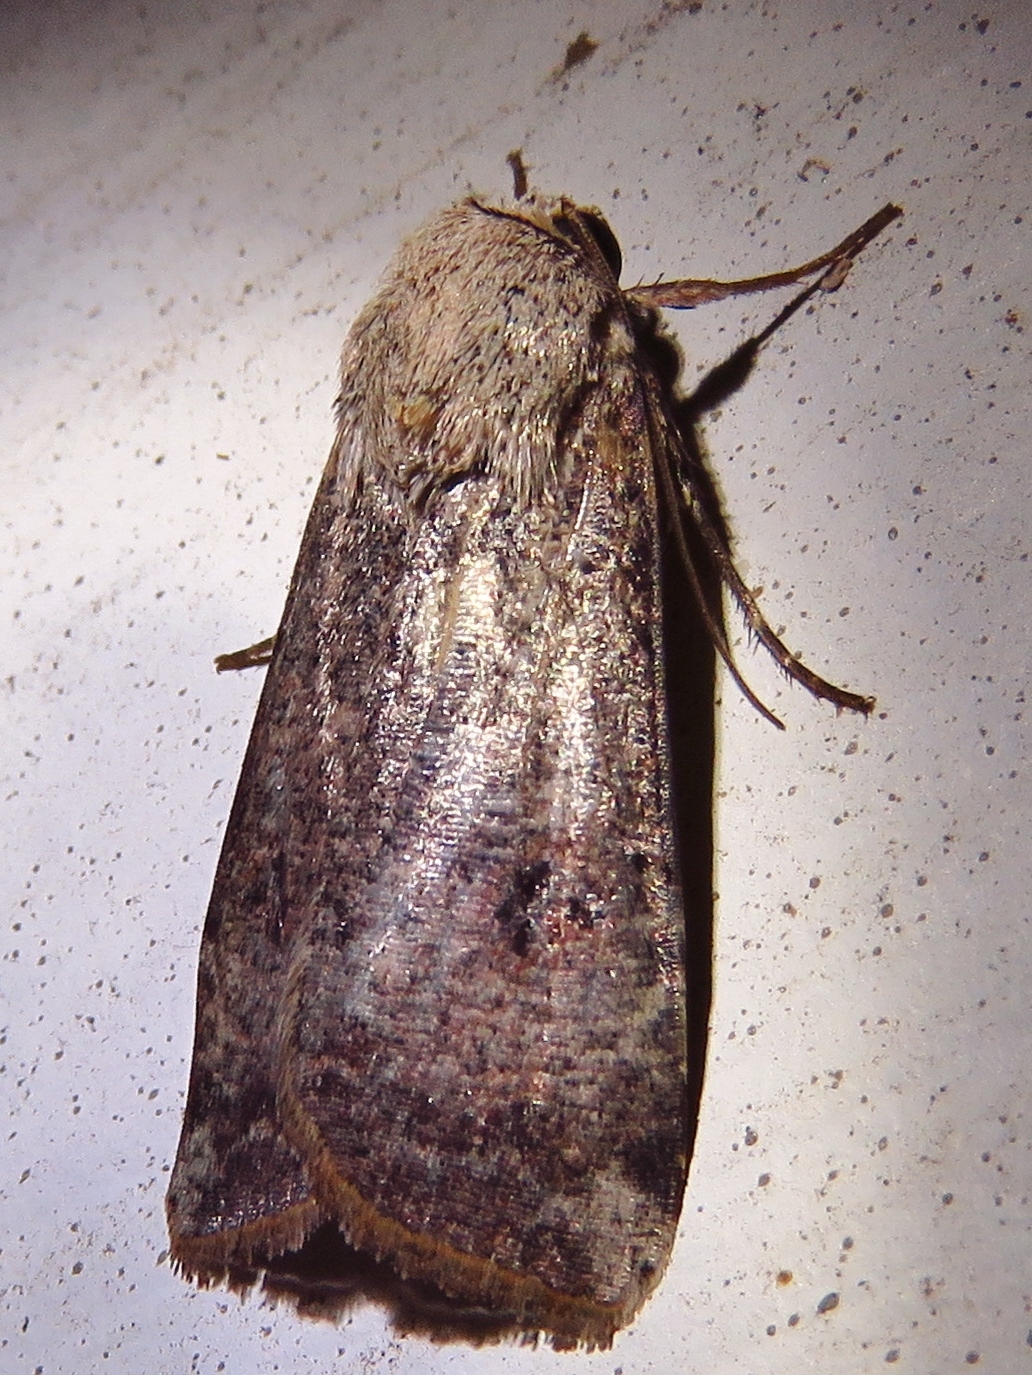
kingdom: Animalia
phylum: Arthropoda
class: Insecta
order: Lepidoptera
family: Noctuidae
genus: Anicla
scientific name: Anicla infecta
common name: Green cutworm
